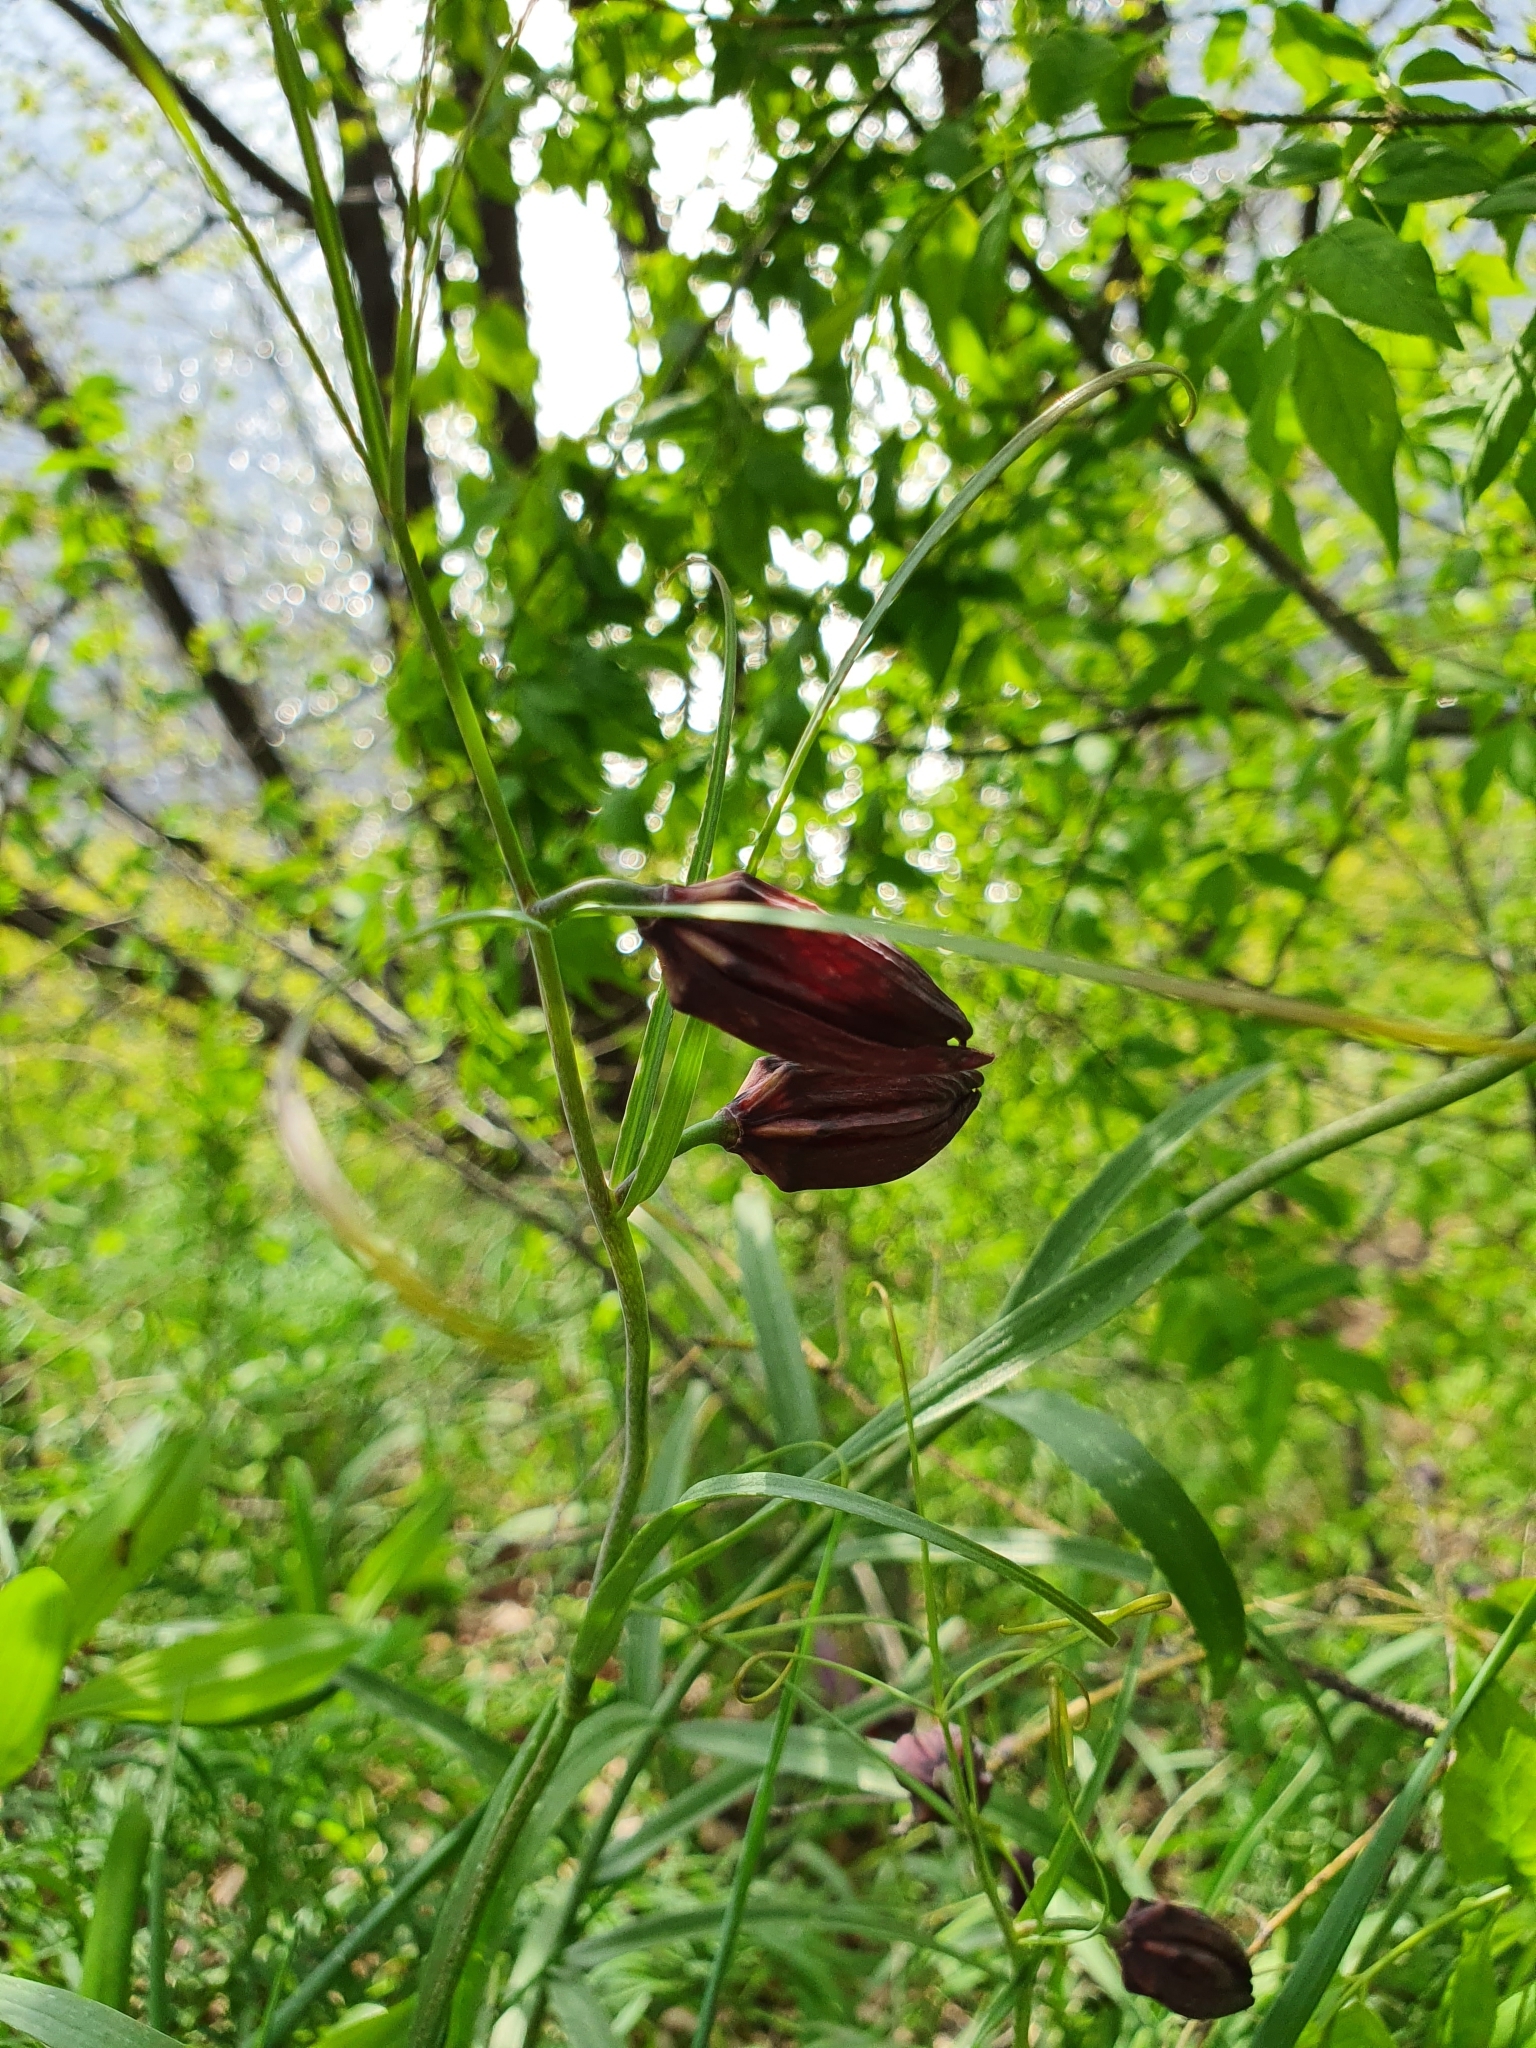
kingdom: Plantae
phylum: Tracheophyta
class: Liliopsida
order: Liliales
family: Liliaceae
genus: Fritillaria
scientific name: Fritillaria ruthenica
